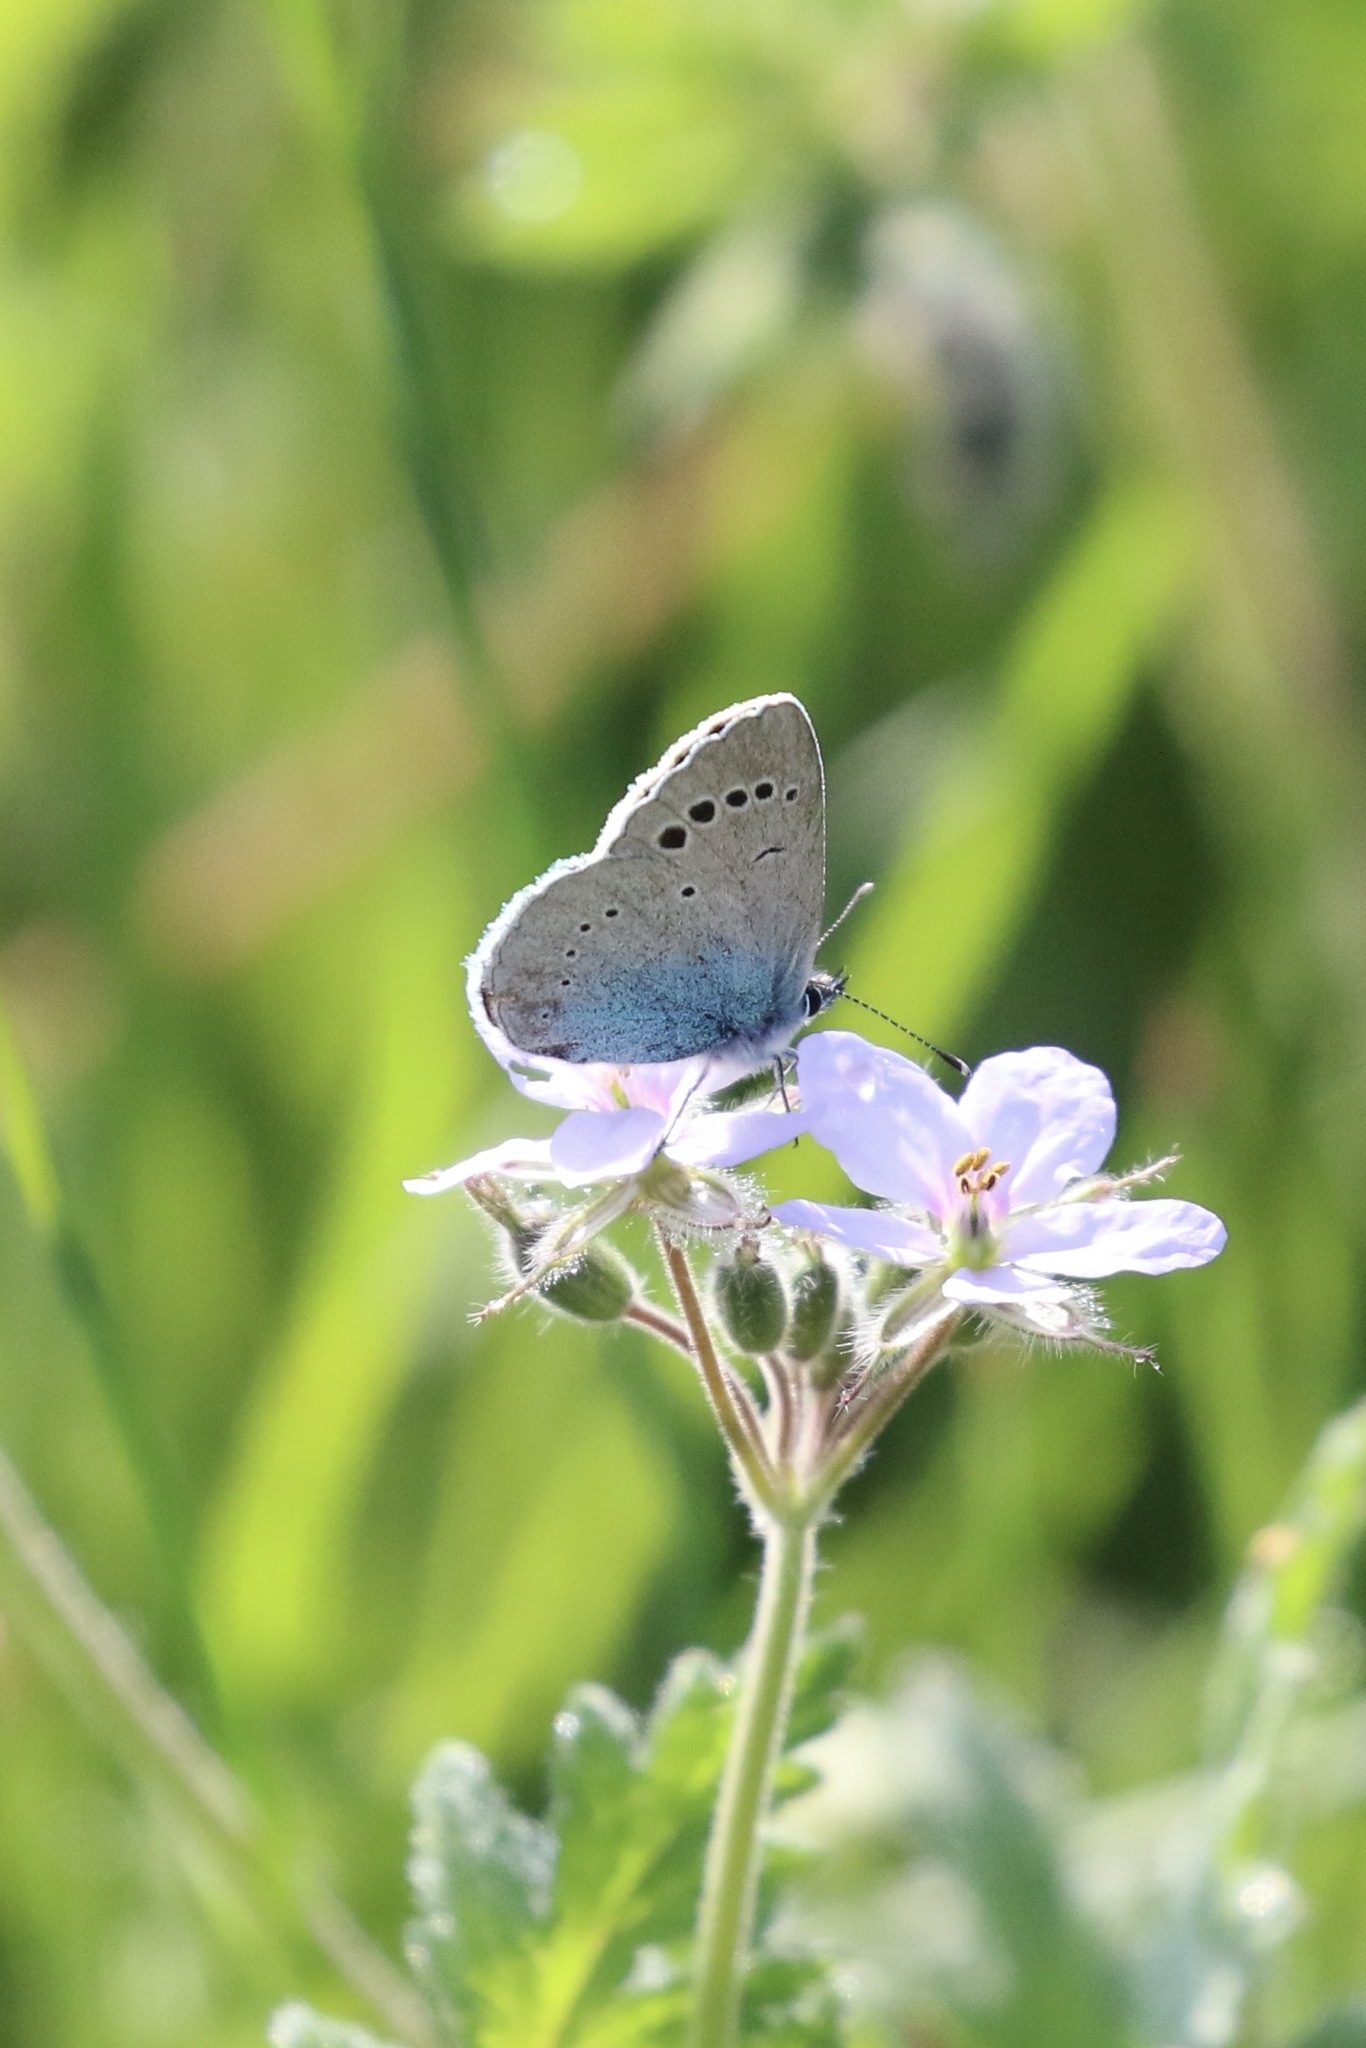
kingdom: Animalia
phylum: Arthropoda
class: Insecta
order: Lepidoptera
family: Lycaenidae
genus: Glaucopsyche
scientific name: Glaucopsyche alexis
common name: Green-underside blue
